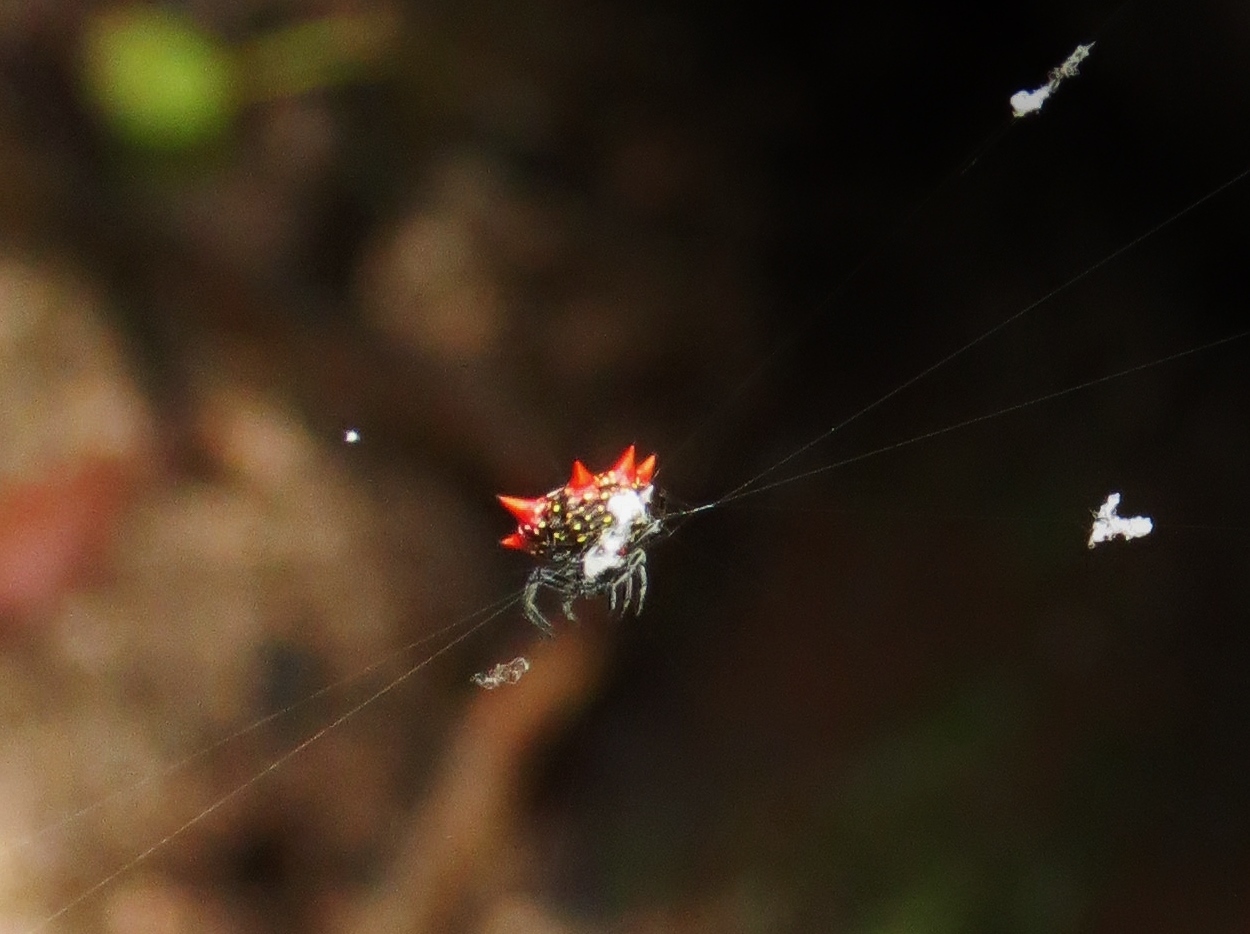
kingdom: Animalia
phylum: Arthropoda
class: Arachnida
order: Araneae
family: Araneidae
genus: Gasteracantha
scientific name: Gasteracantha cancriformis
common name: Orb weavers
